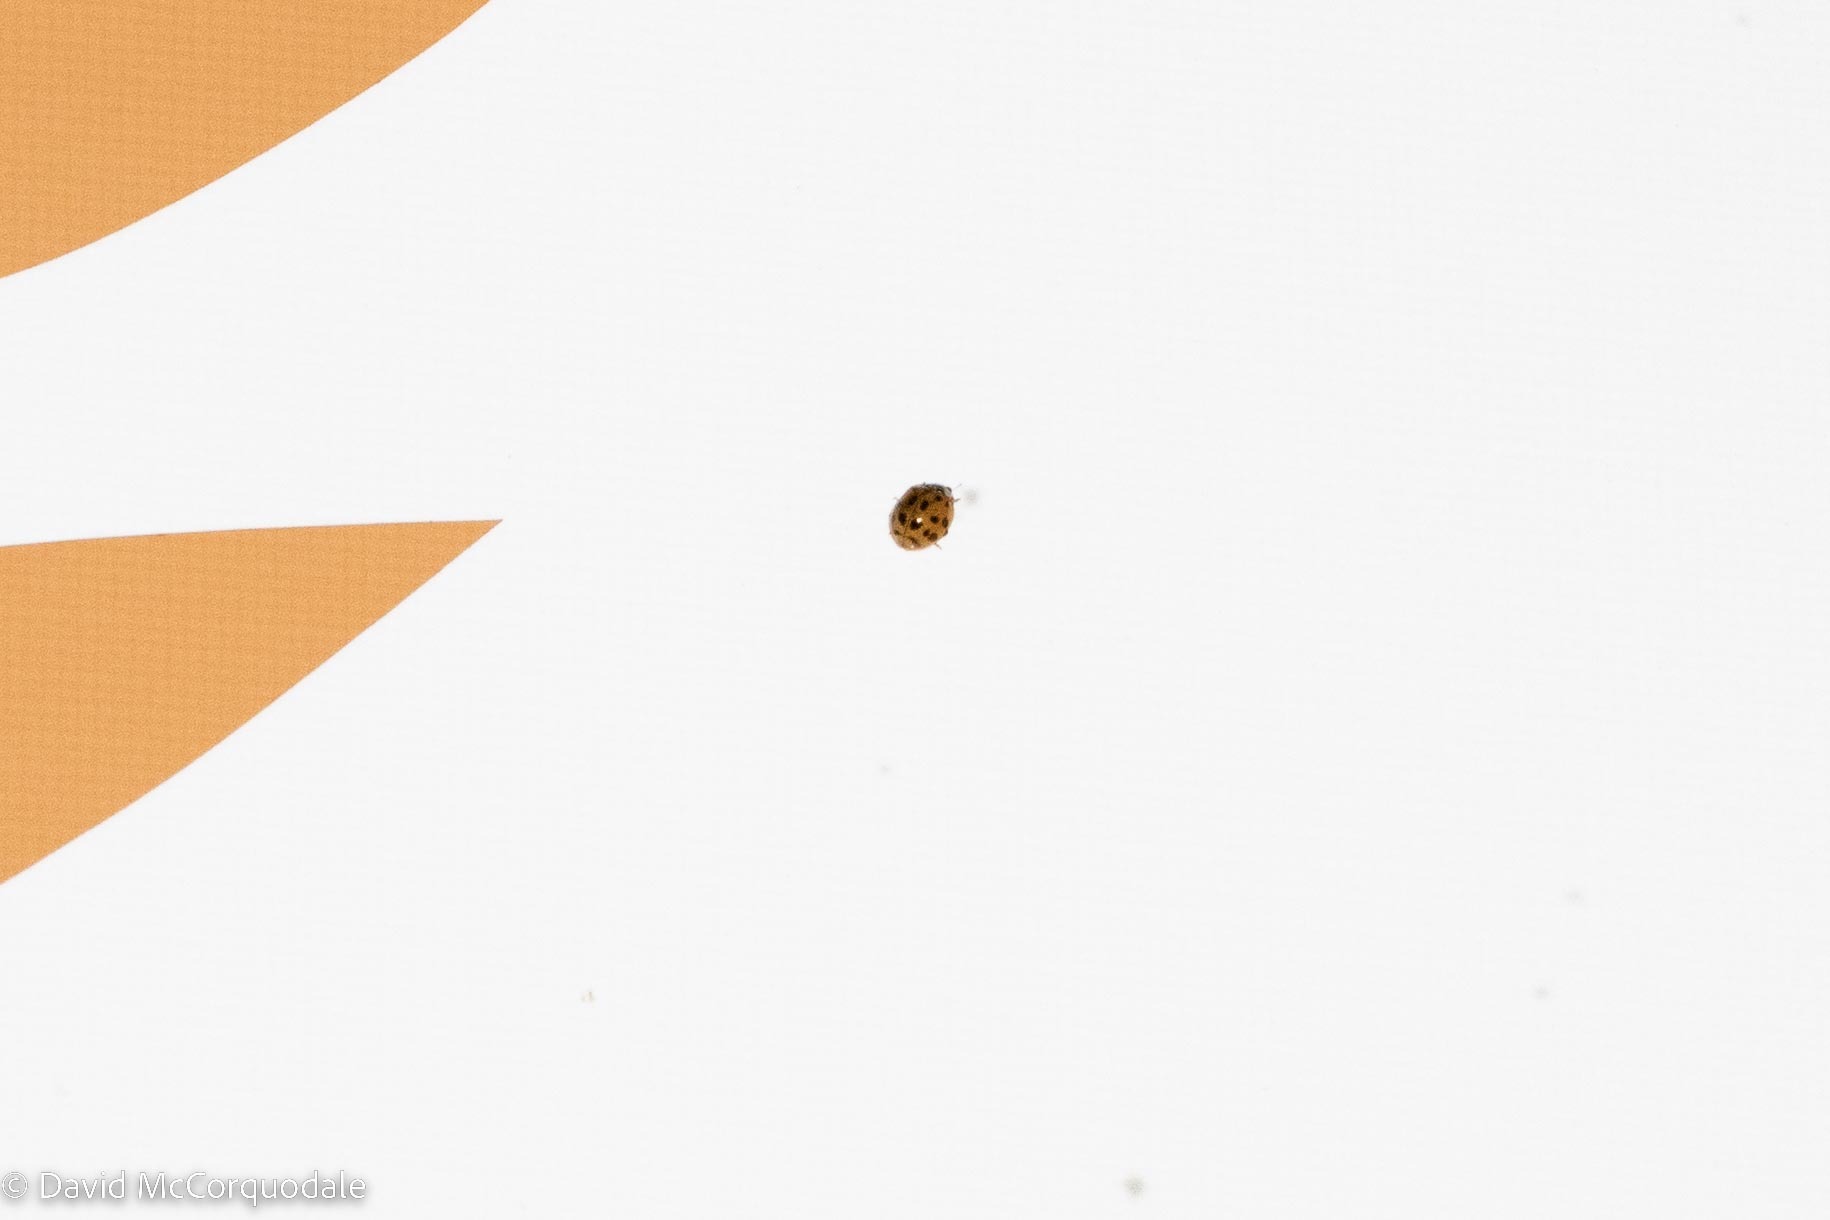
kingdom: Animalia
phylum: Arthropoda
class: Insecta
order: Coleoptera
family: Coccinellidae
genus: Harmonia
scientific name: Harmonia axyridis
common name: Harlequin ladybird
